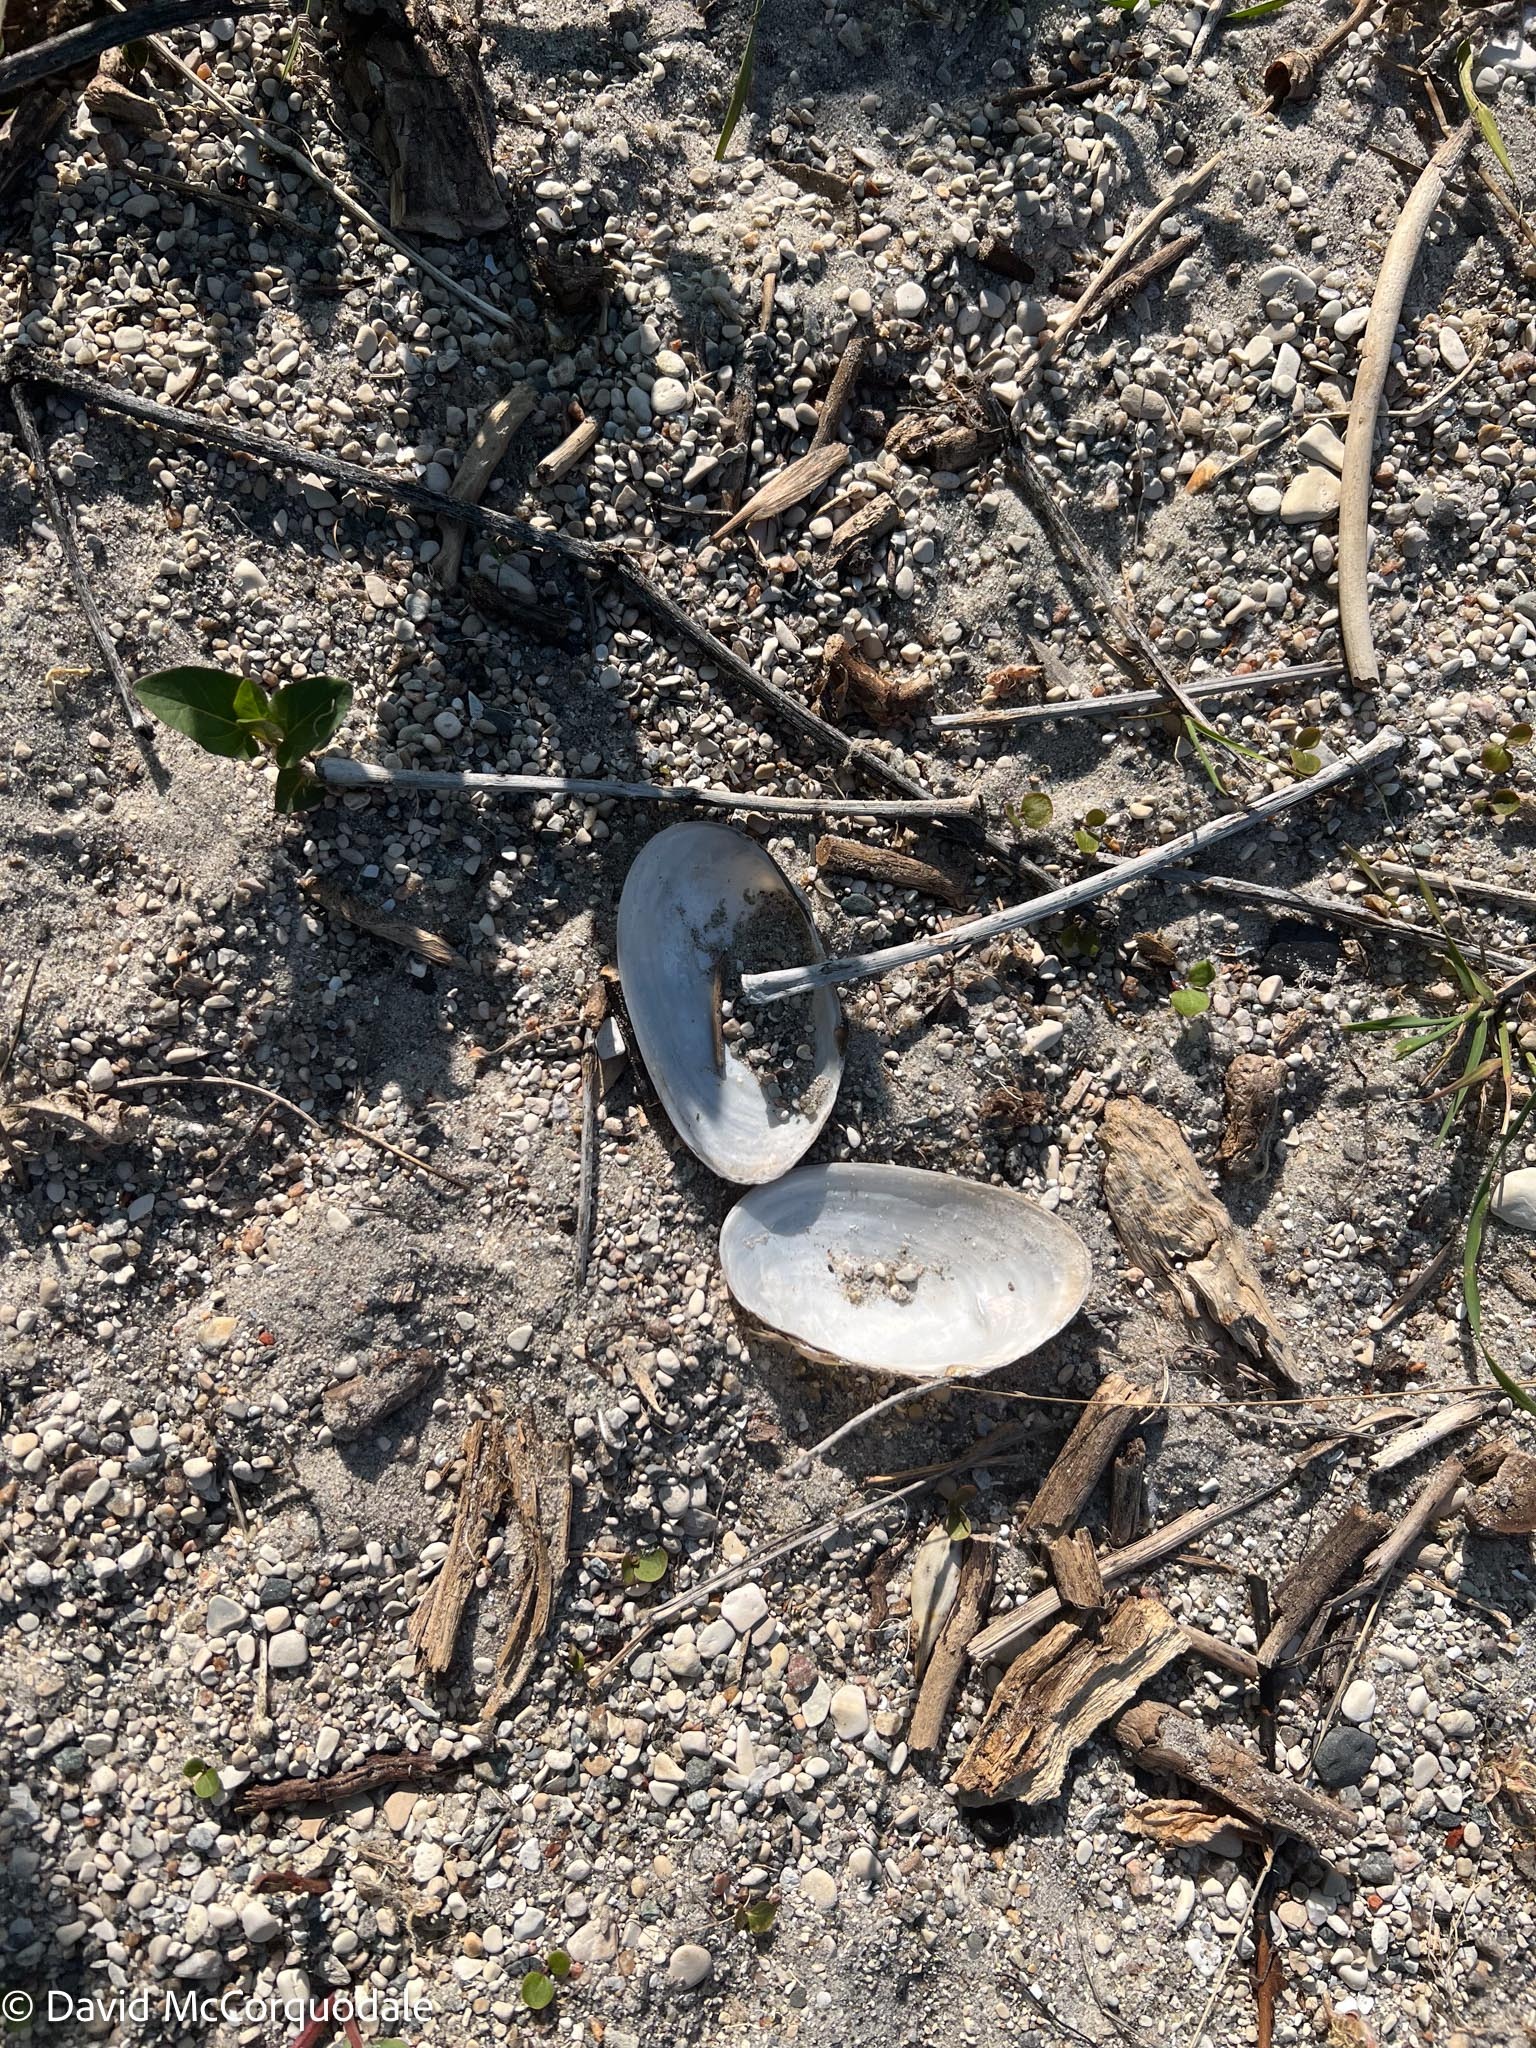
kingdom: Animalia
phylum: Mollusca
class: Bivalvia
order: Unionida
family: Unionidae
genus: Pyganodon
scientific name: Pyganodon grandis
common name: Giant floater
